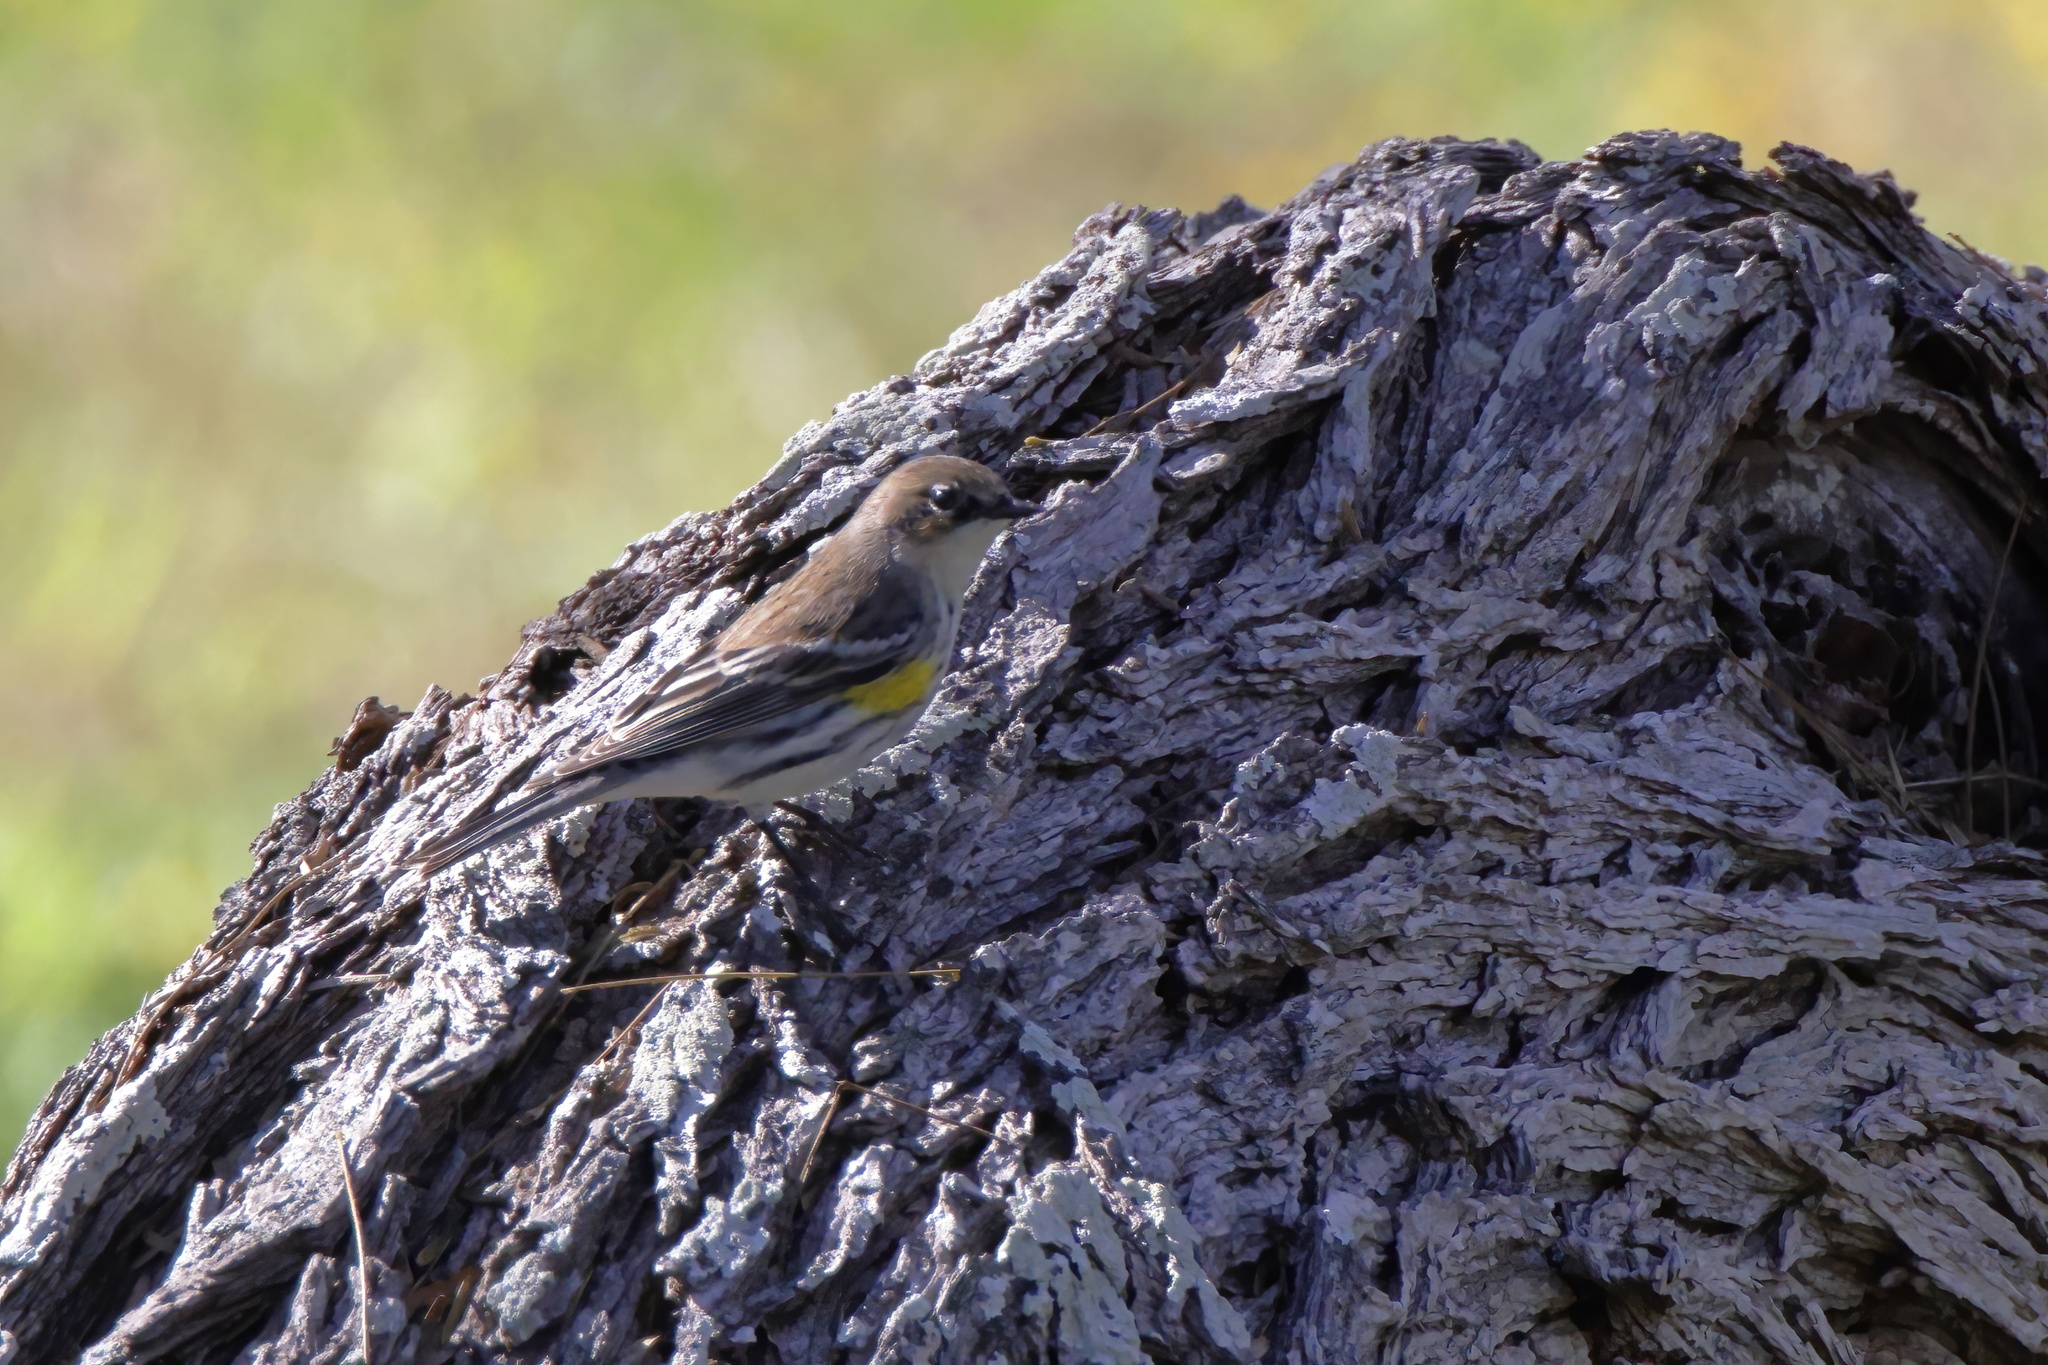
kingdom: Animalia
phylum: Chordata
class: Aves
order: Passeriformes
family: Parulidae
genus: Setophaga
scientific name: Setophaga coronata
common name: Myrtle warbler
